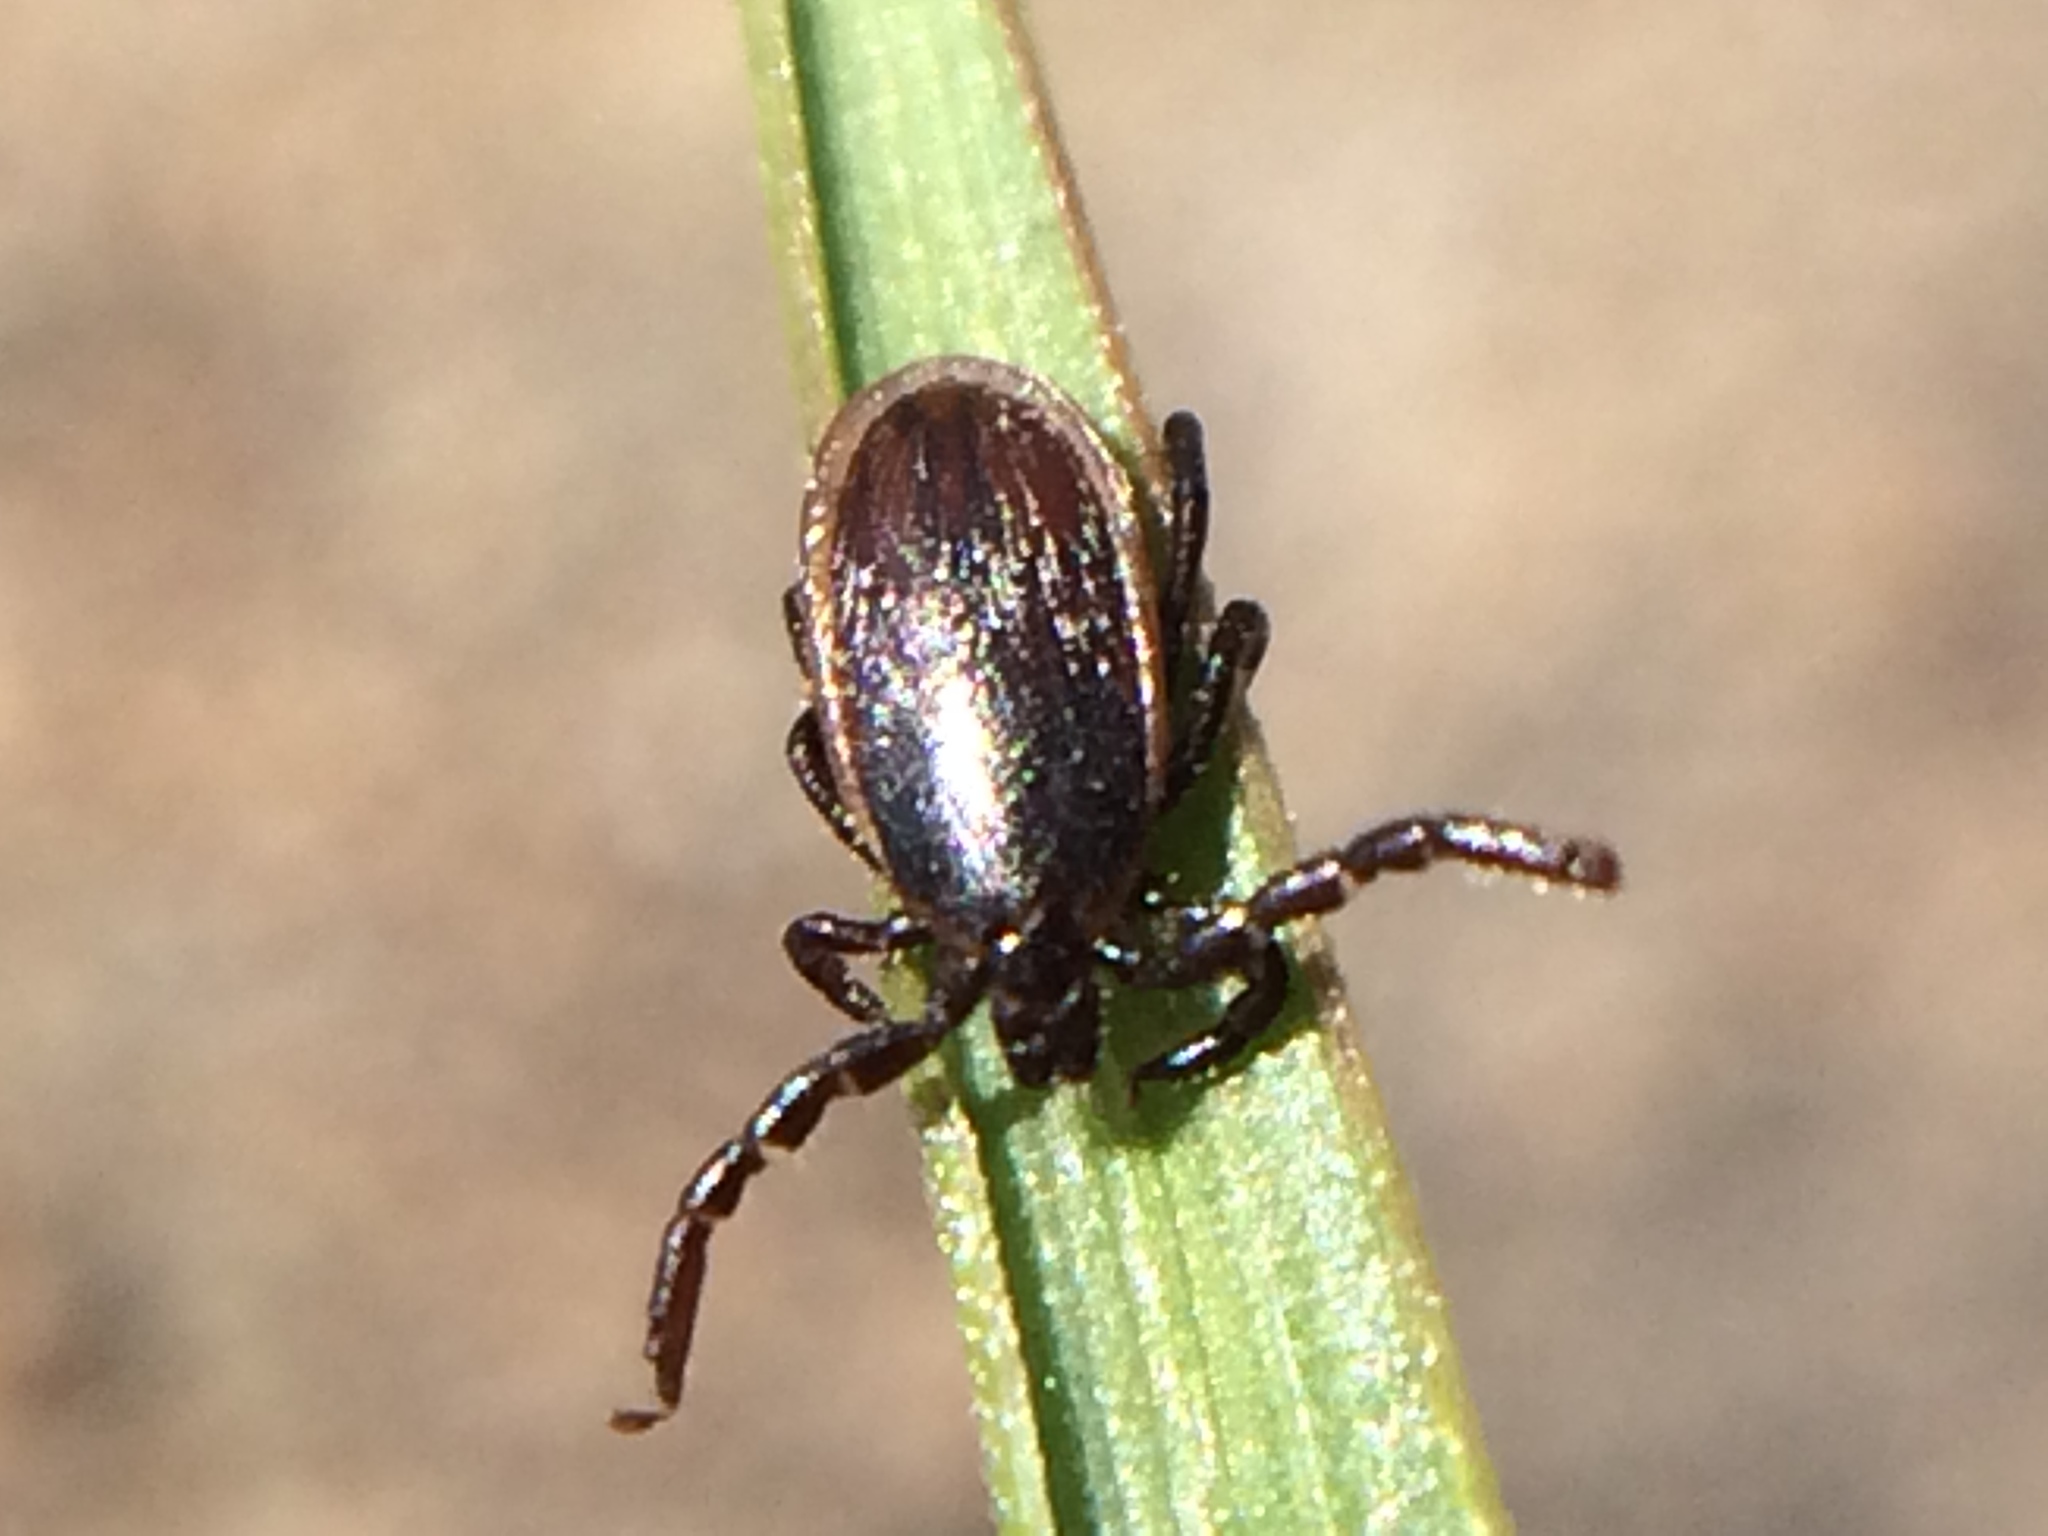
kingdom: Animalia
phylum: Arthropoda
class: Arachnida
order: Ixodida
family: Ixodidae
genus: Ixodes
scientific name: Ixodes pacificus
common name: California black-legged tick
